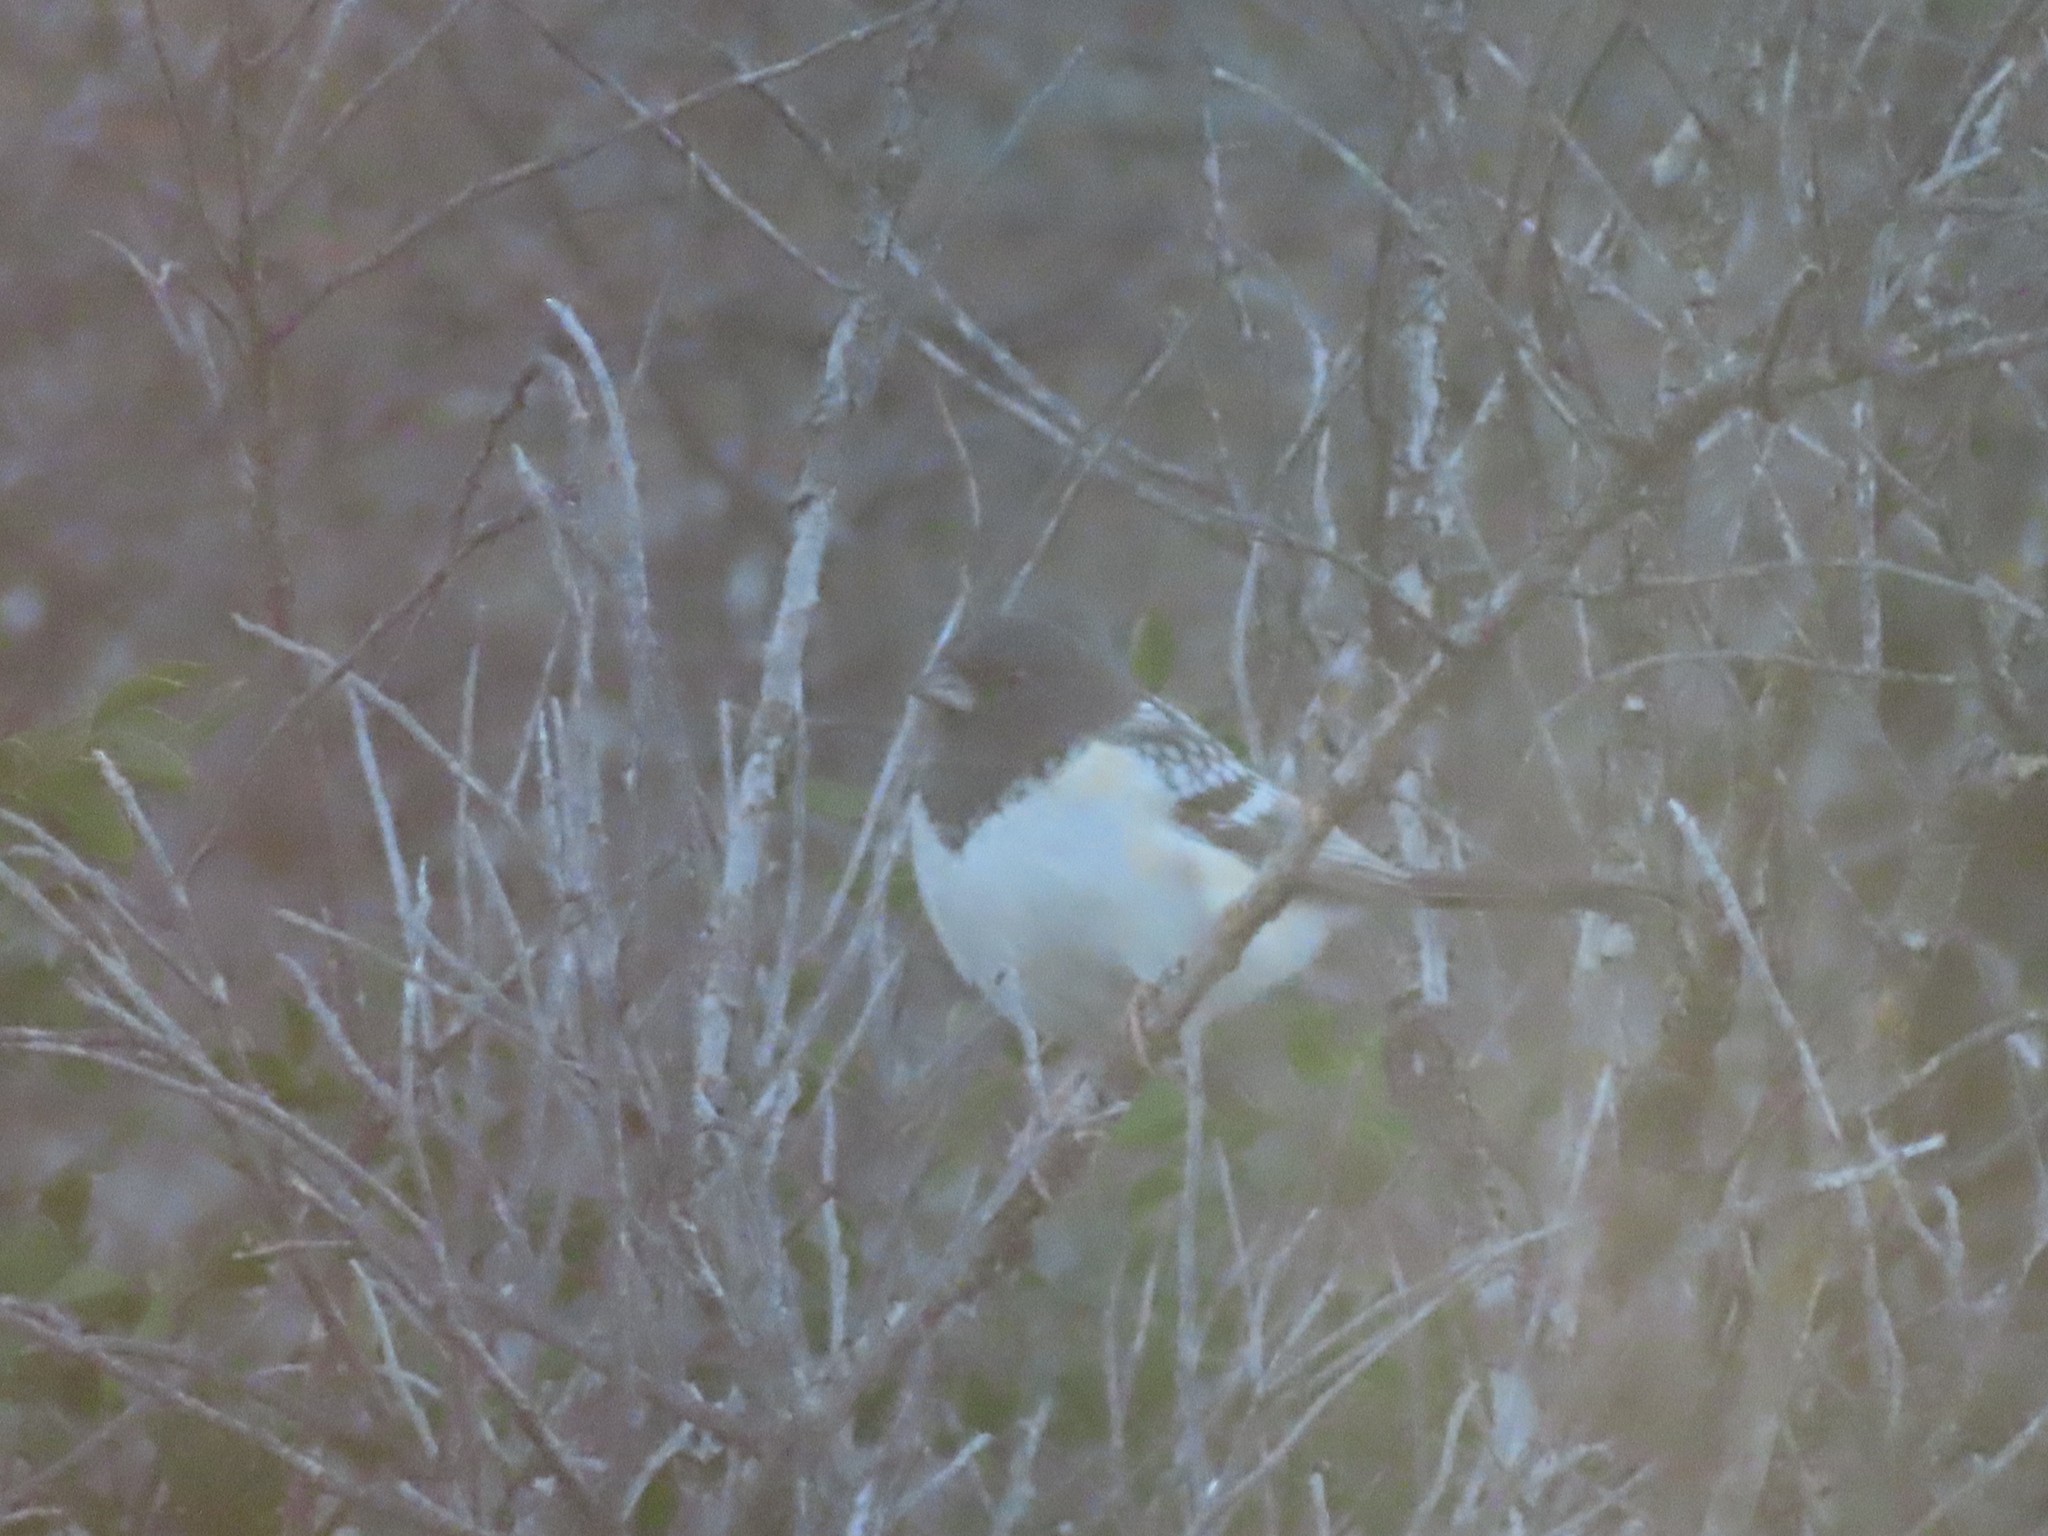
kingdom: Animalia
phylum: Chordata
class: Aves
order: Passeriformes
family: Passerellidae
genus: Pipilo
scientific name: Pipilo maculatus
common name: Spotted towhee
